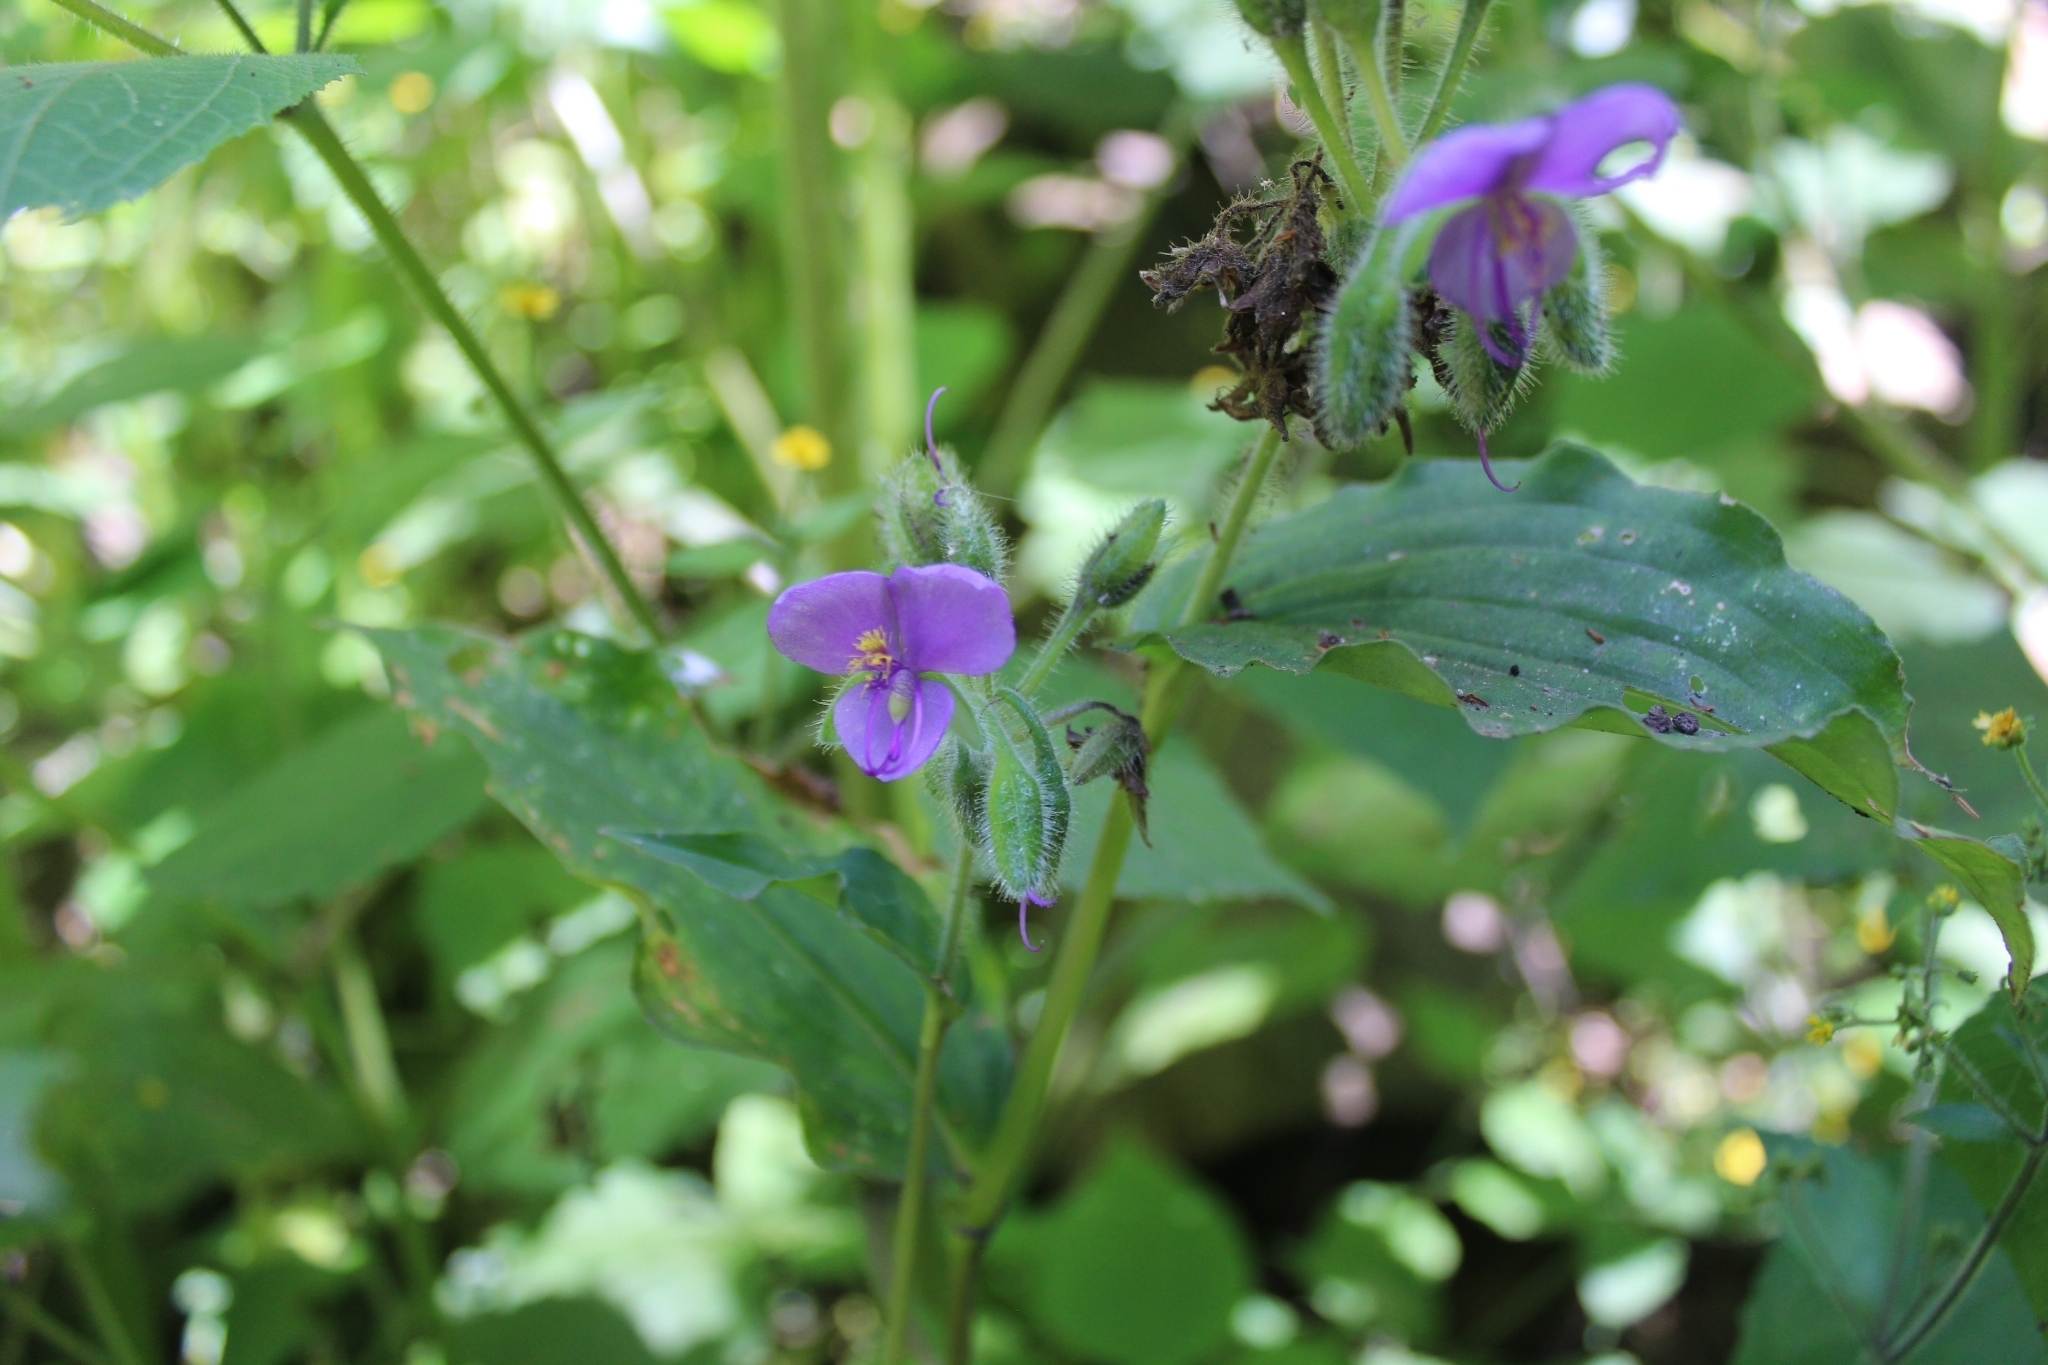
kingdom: Plantae
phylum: Tracheophyta
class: Liliopsida
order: Commelinales
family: Commelinaceae
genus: Tinantia
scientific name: Tinantia erecta
